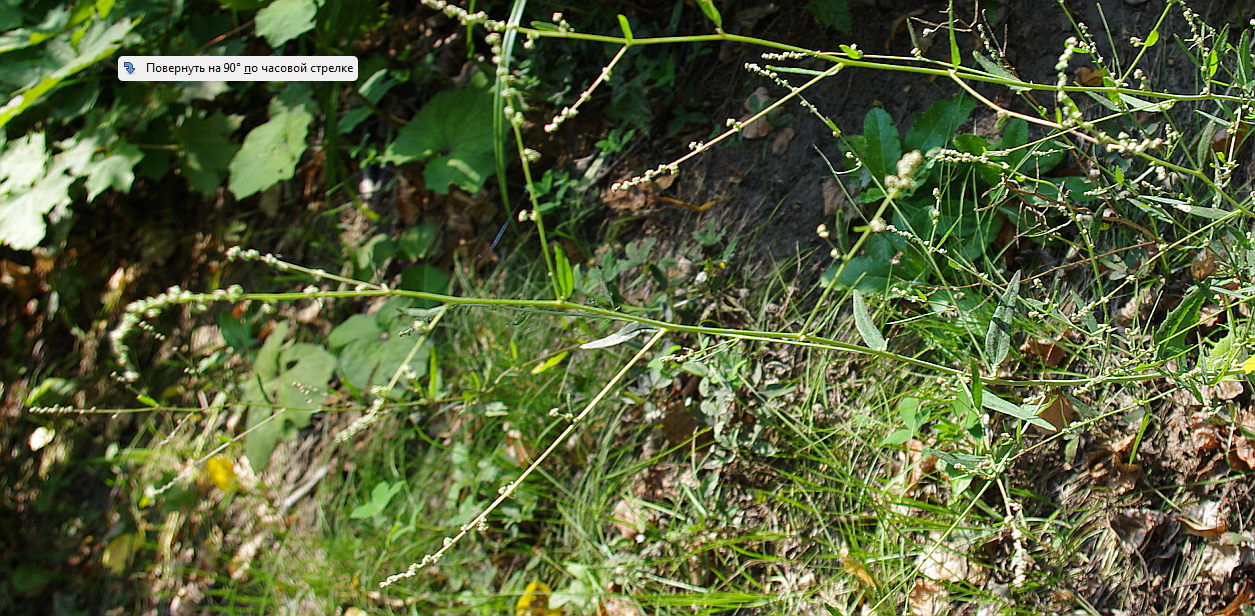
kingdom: Plantae
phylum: Tracheophyta
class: Magnoliopsida
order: Caryophyllales
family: Amaranthaceae
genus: Atriplex
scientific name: Atriplex patula
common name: Common orache
